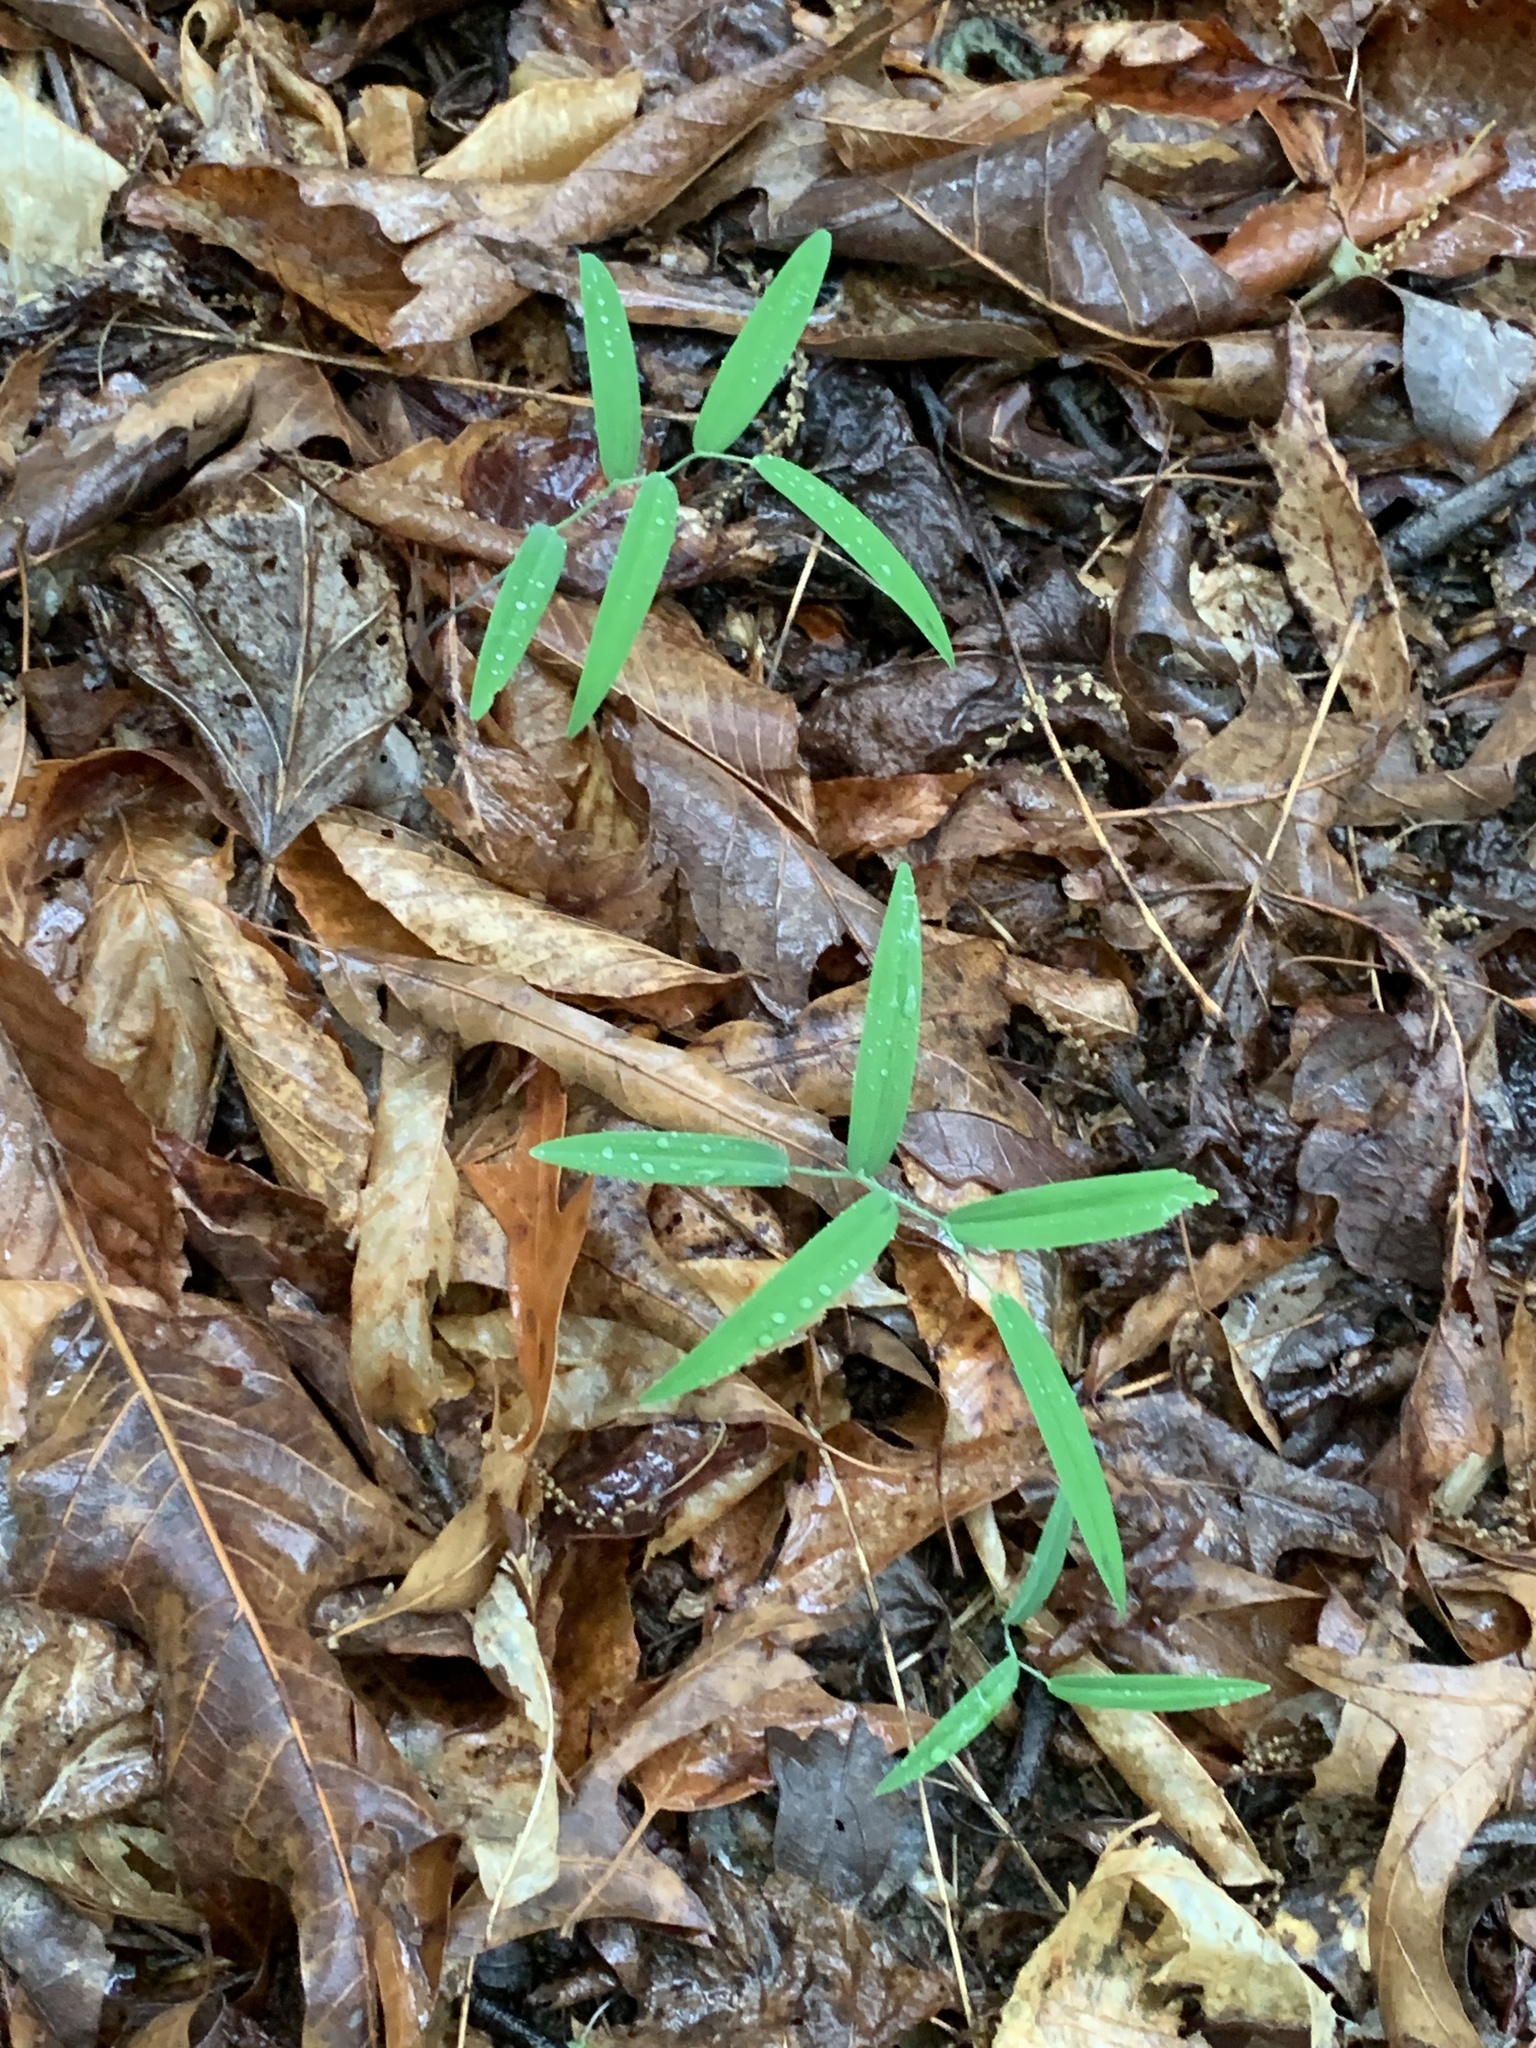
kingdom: Plantae
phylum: Tracheophyta
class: Liliopsida
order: Asparagales
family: Asparagaceae
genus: Polygonatum
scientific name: Polygonatum biflorum
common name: American solomon's-seal
